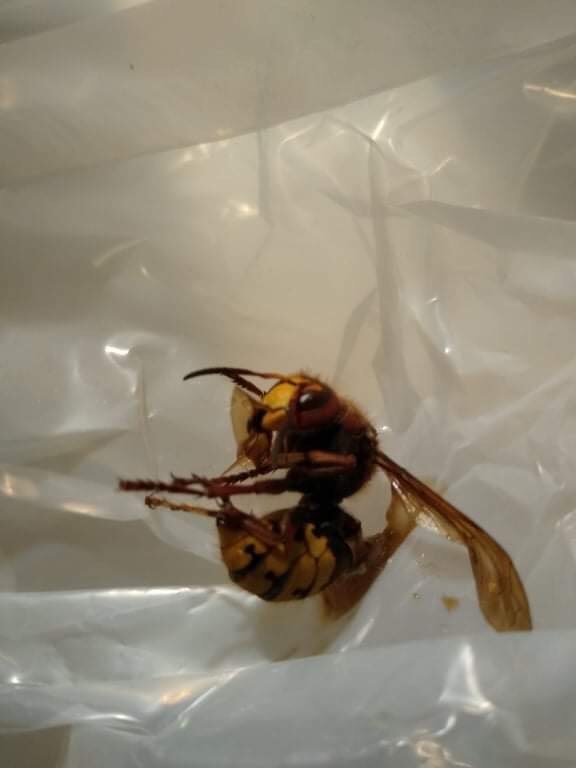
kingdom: Animalia
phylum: Arthropoda
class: Insecta
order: Hymenoptera
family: Vespidae
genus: Vespa
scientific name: Vespa crabro
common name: Hornet
